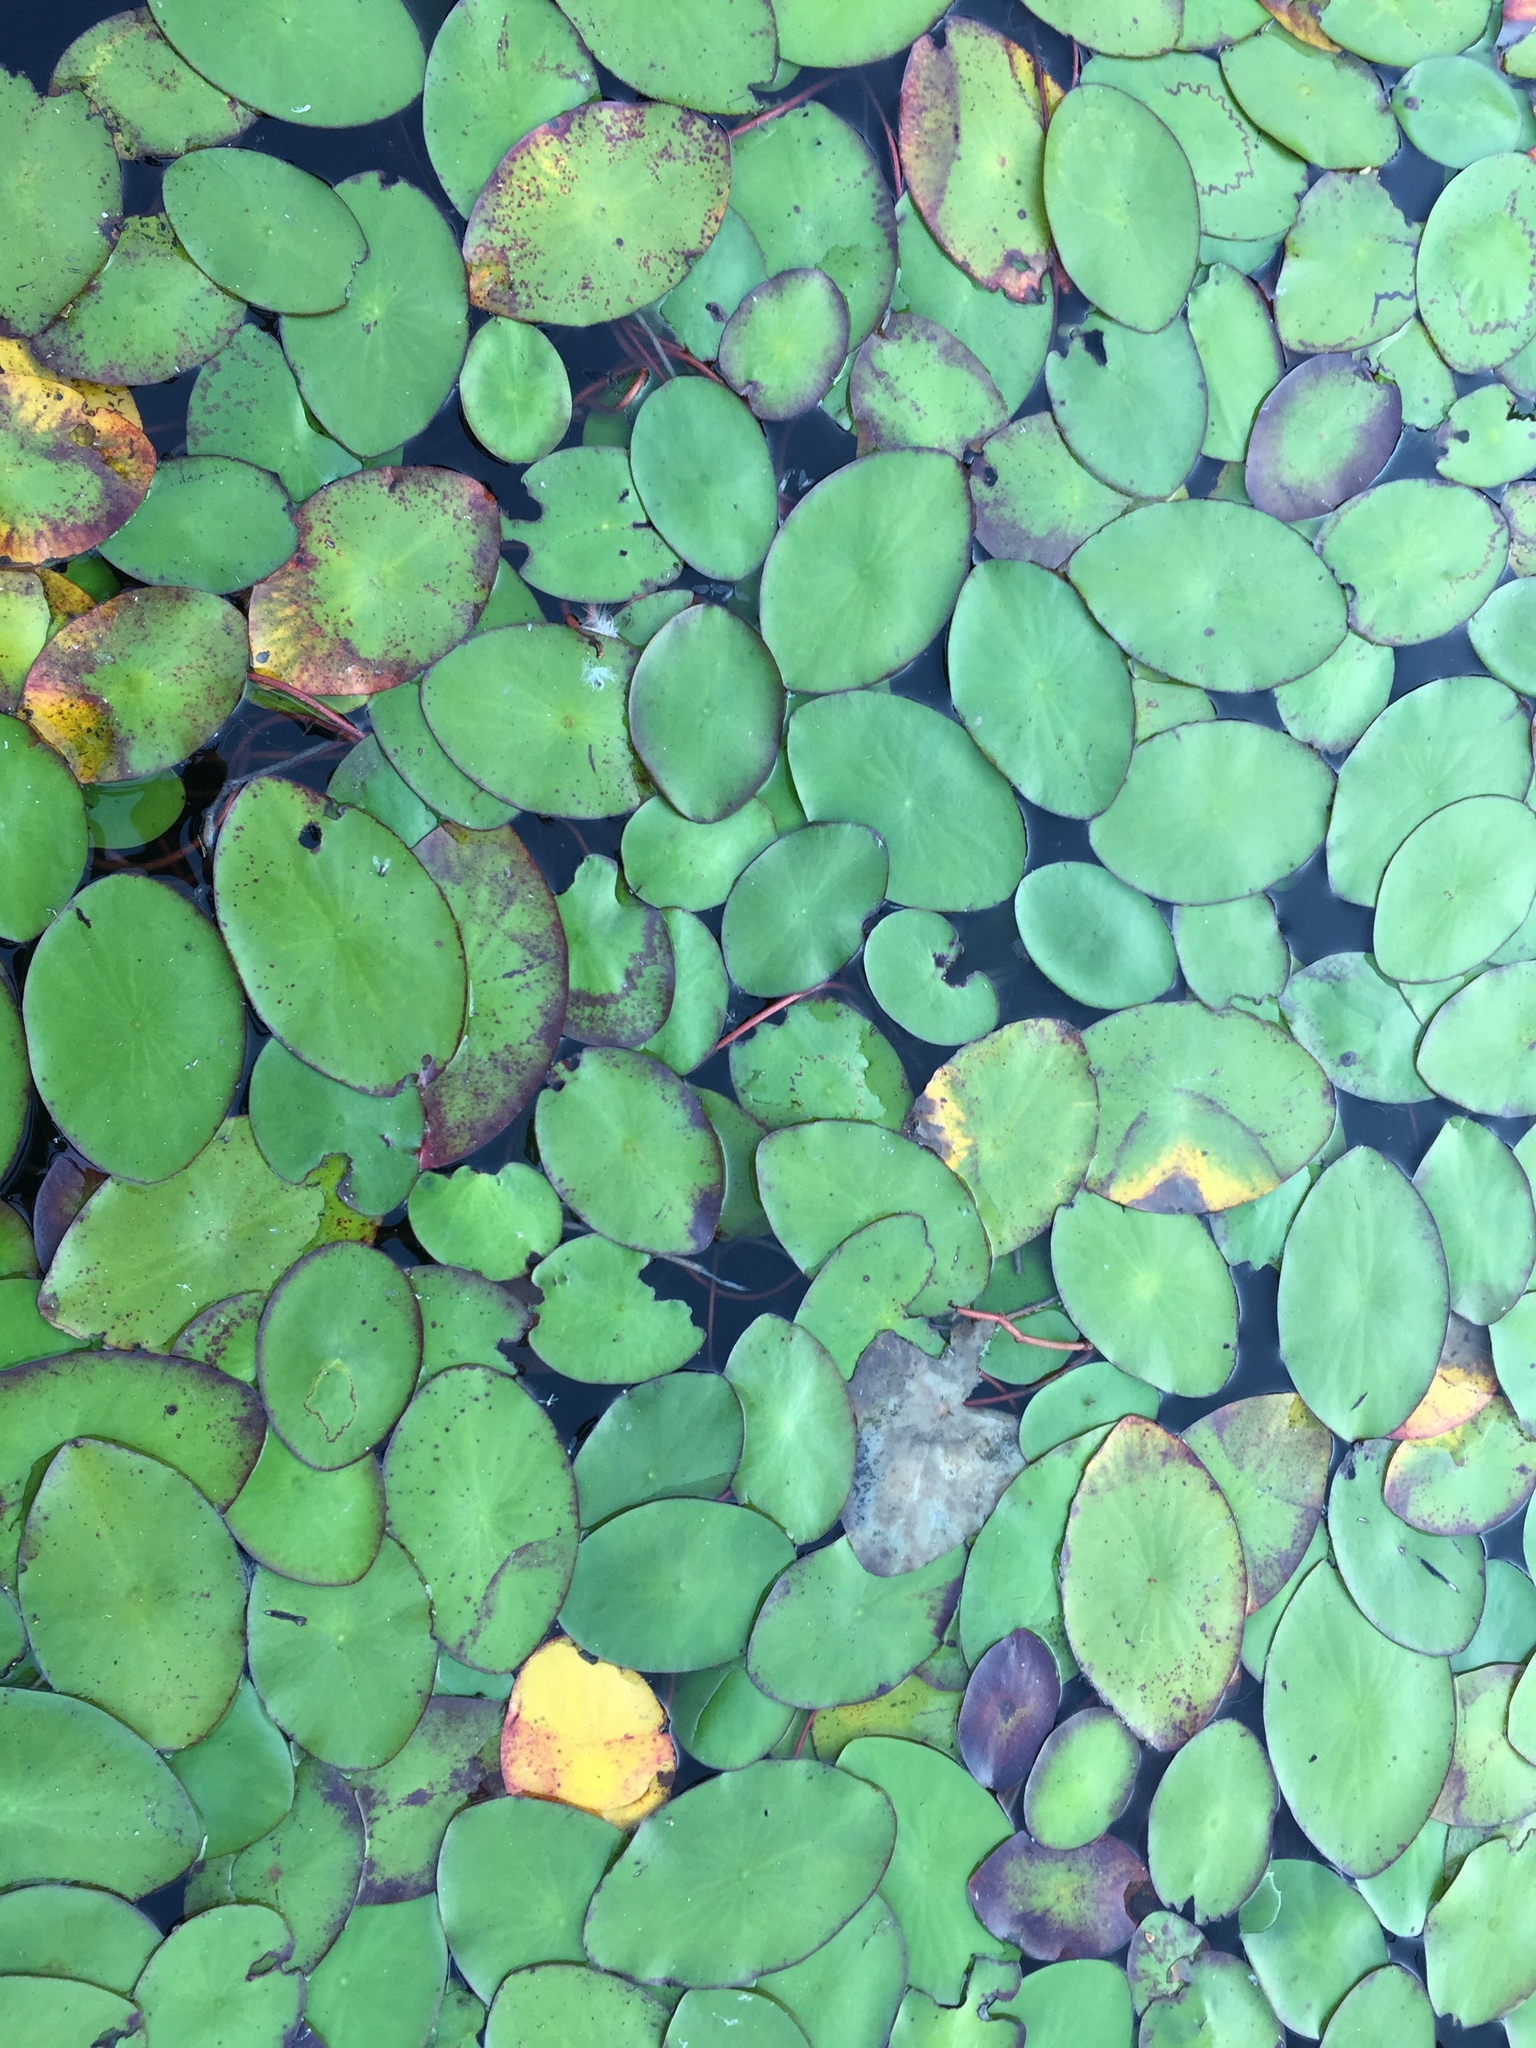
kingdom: Plantae
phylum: Tracheophyta
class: Magnoliopsida
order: Nymphaeales
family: Cabombaceae
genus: Brasenia
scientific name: Brasenia schreberi
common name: Water-shield
